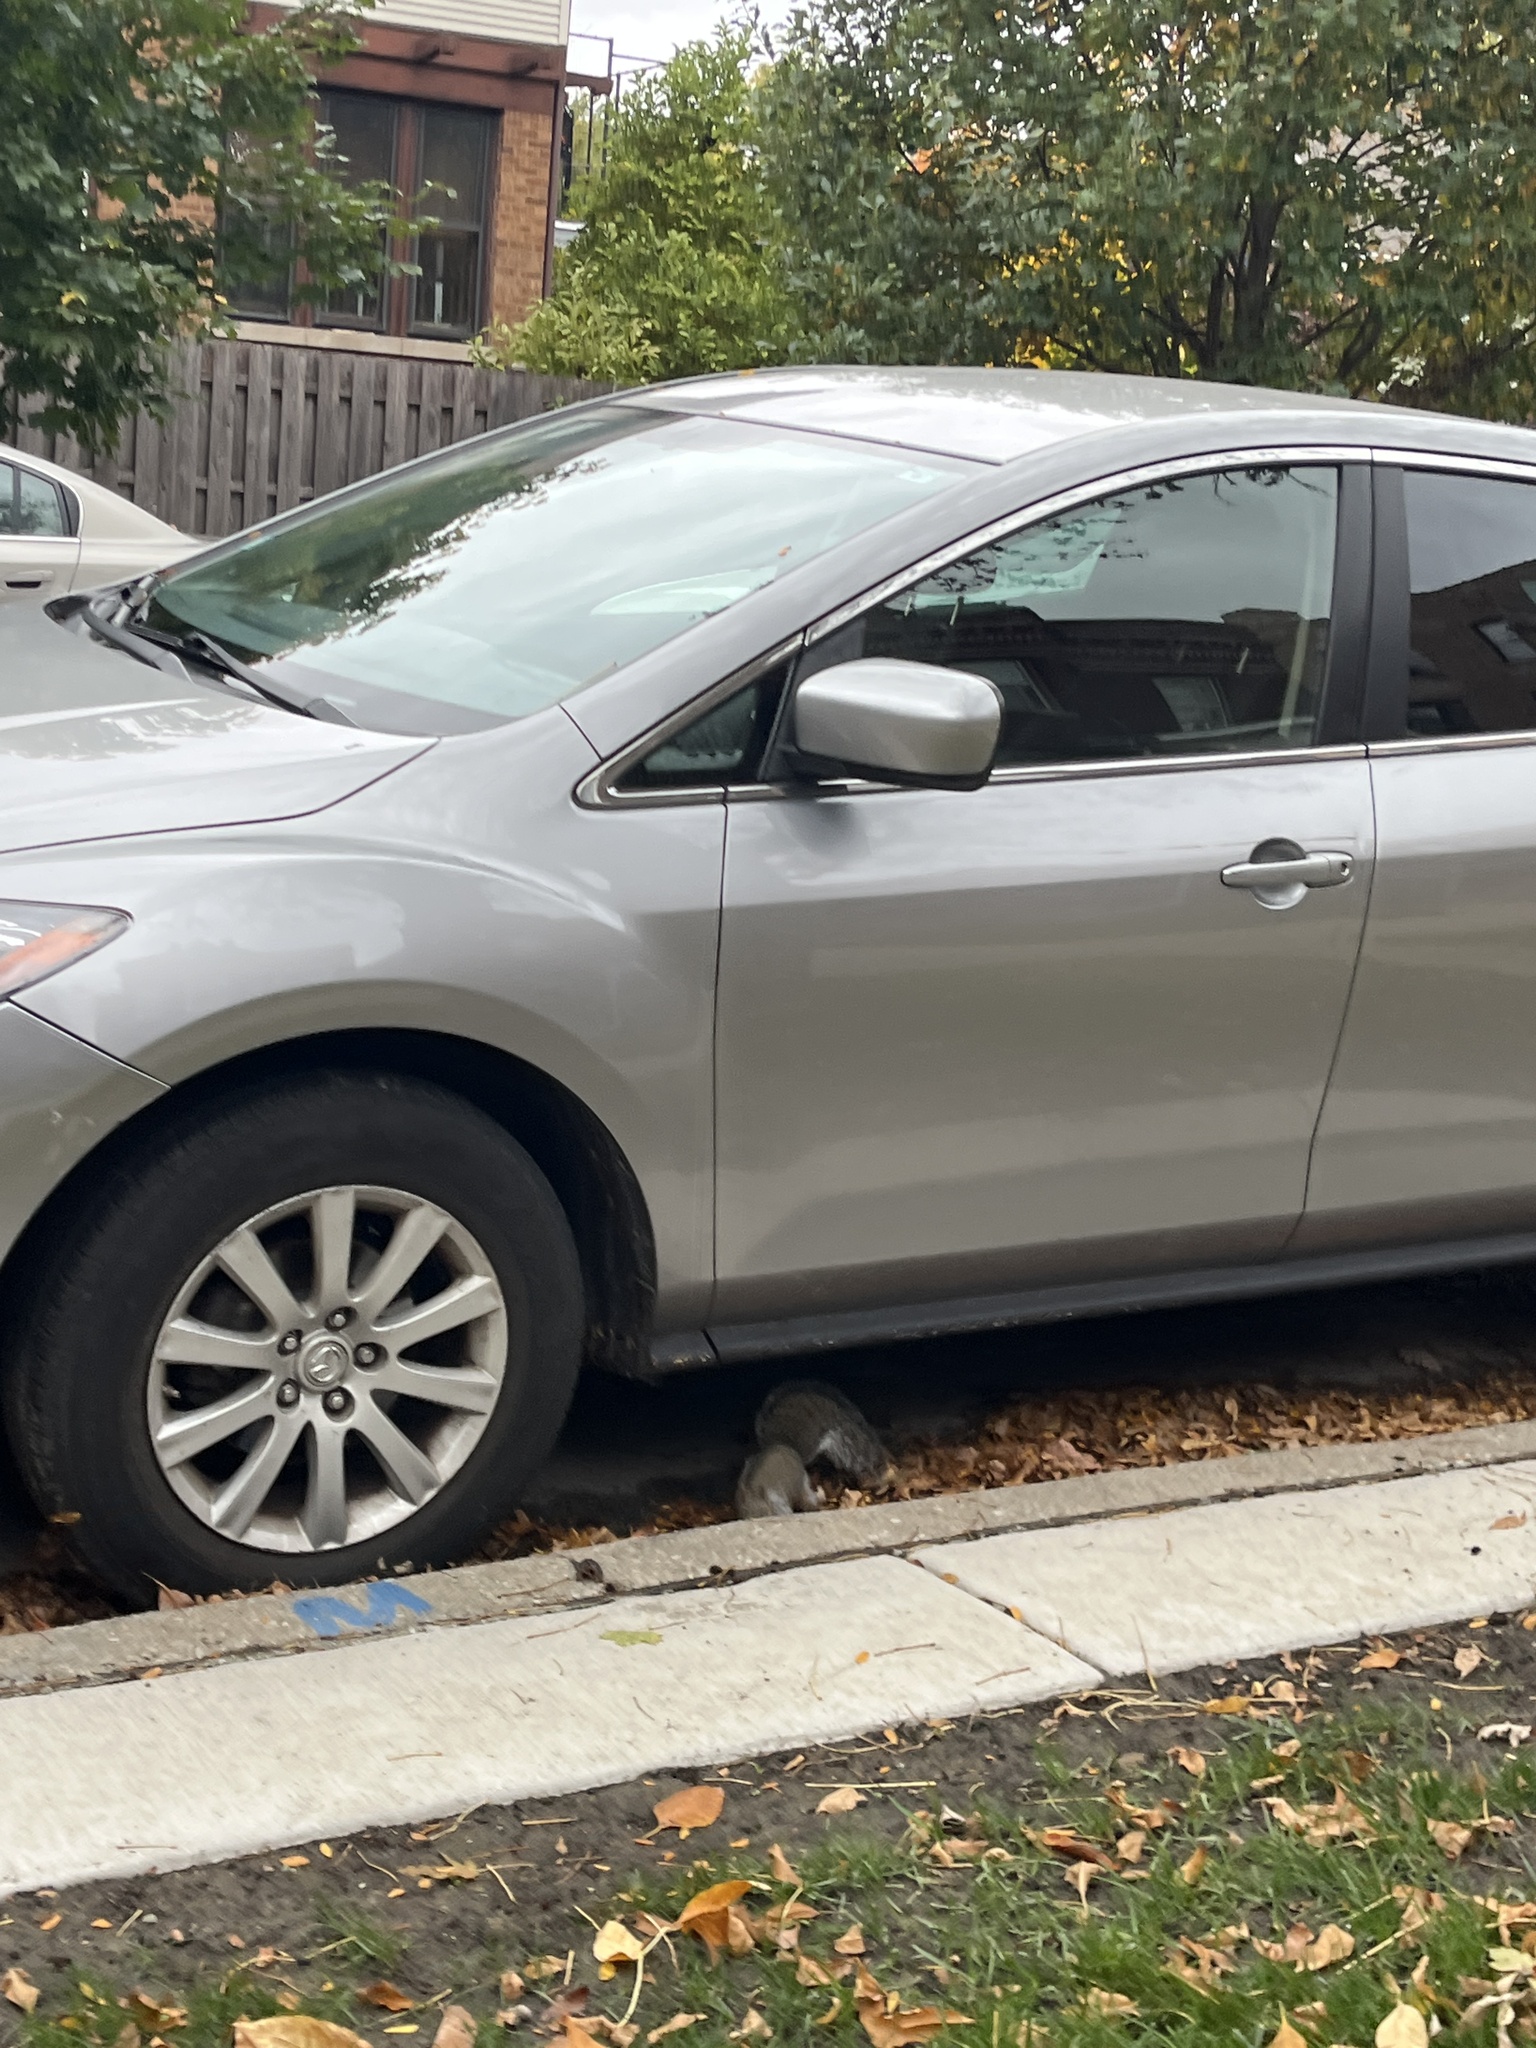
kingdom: Animalia
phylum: Chordata
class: Mammalia
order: Rodentia
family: Sciuridae
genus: Sciurus
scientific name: Sciurus carolinensis
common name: Eastern gray squirrel
